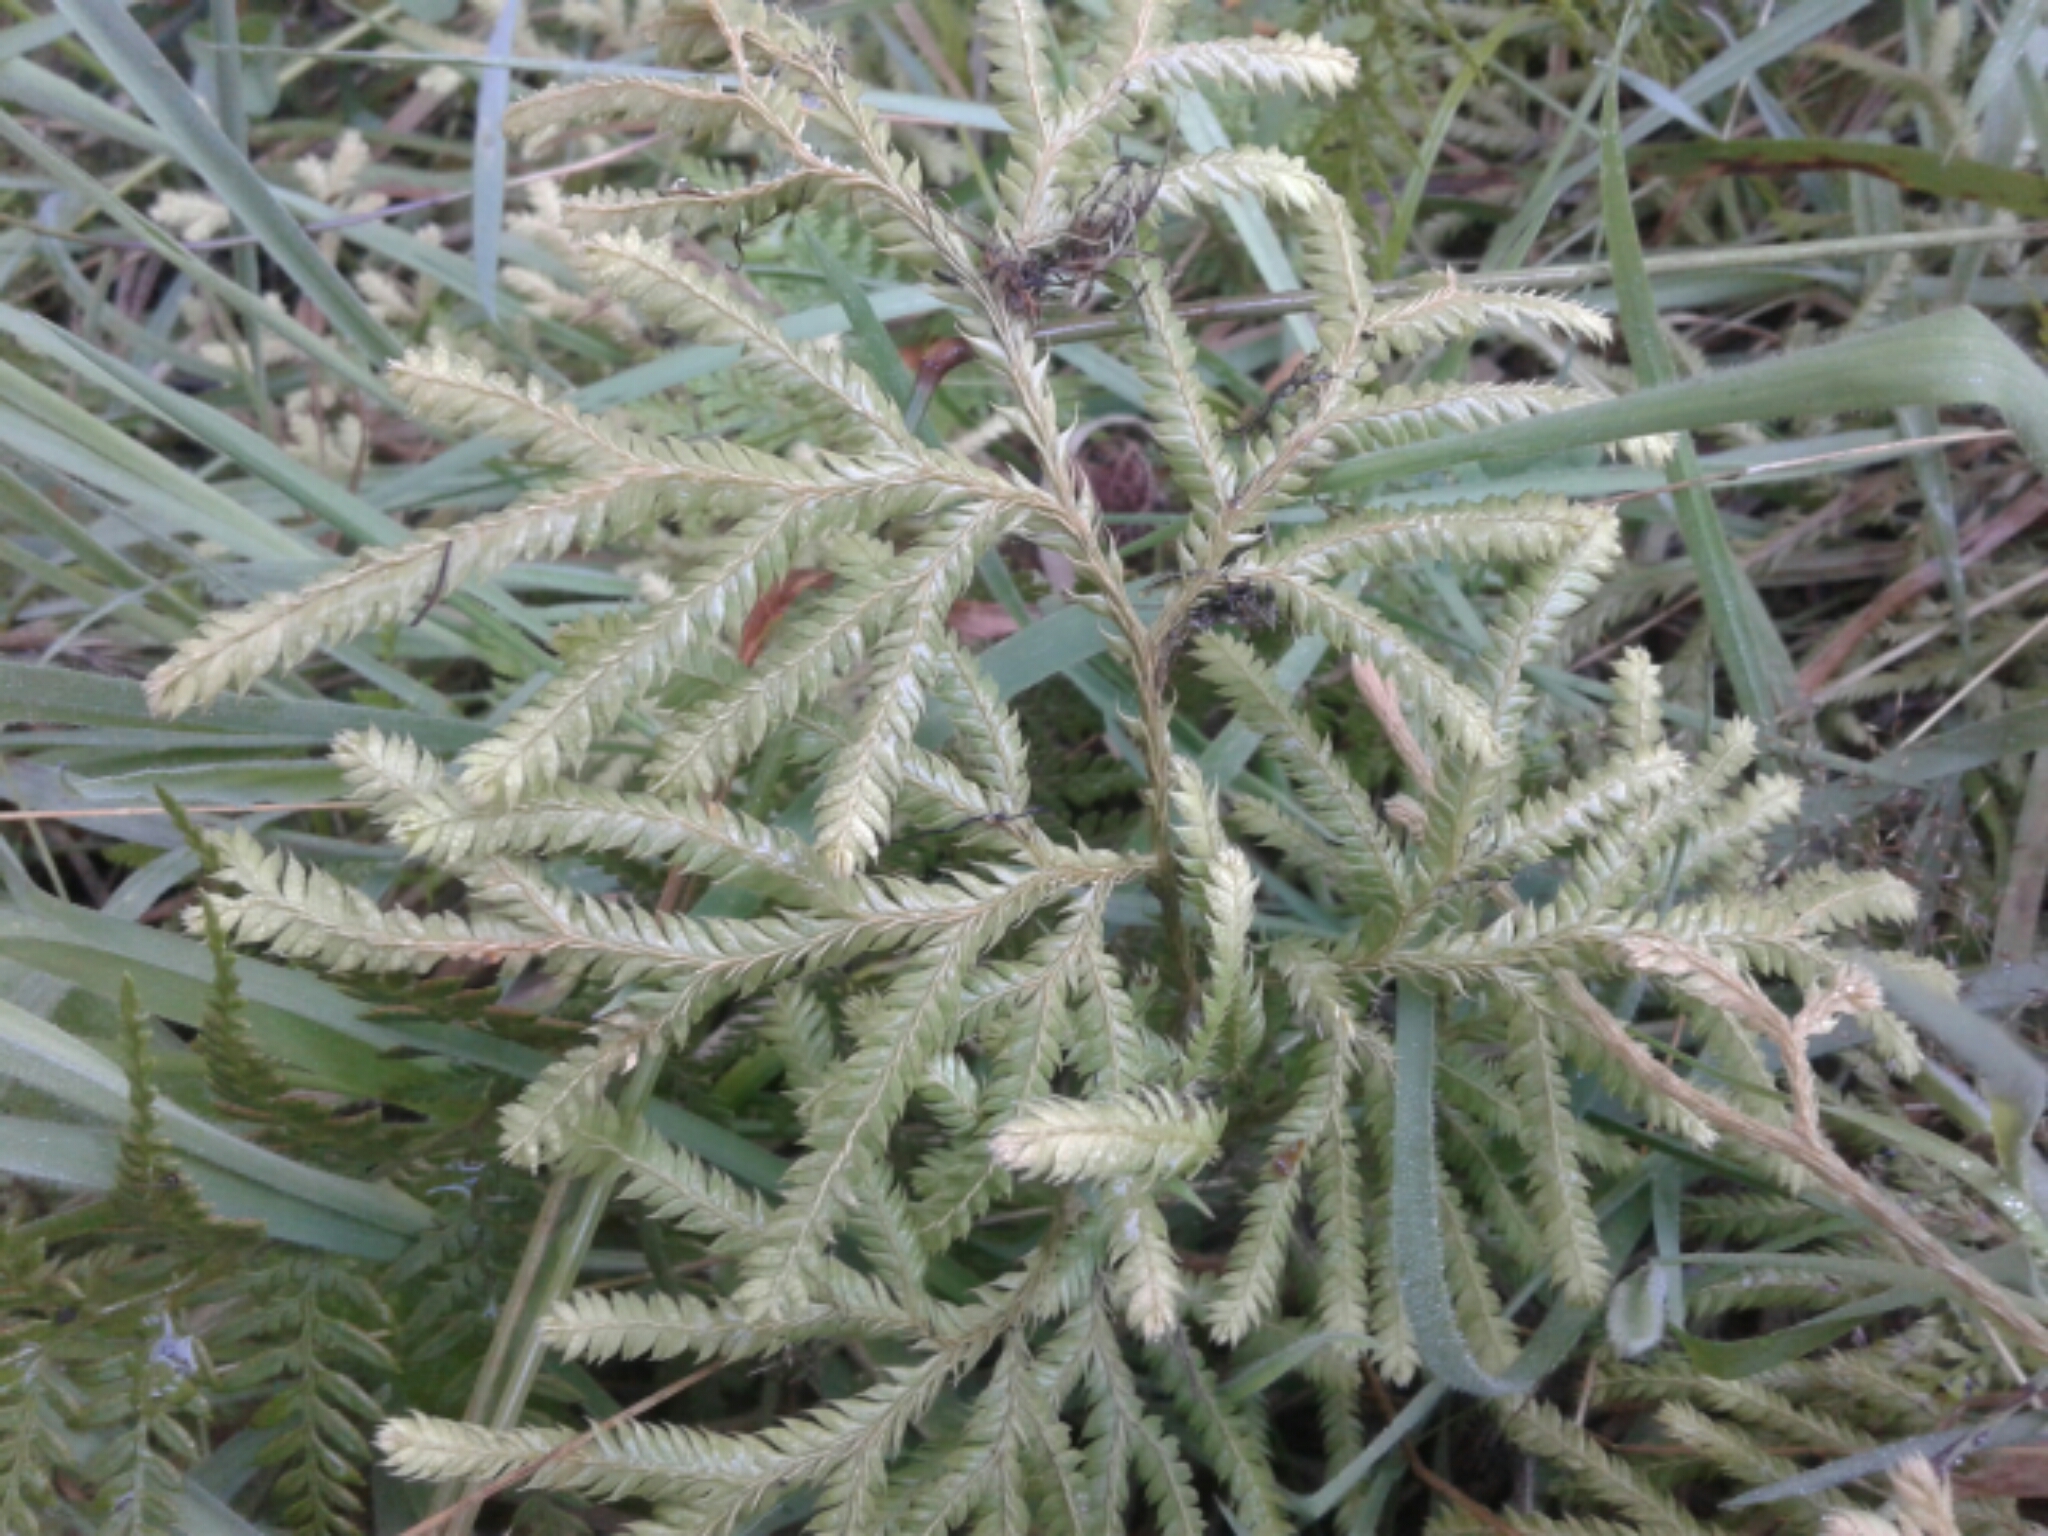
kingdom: Plantae
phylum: Tracheophyta
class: Lycopodiopsida
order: Lycopodiales
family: Lycopodiaceae
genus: Lycopodium
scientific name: Lycopodium volubile
